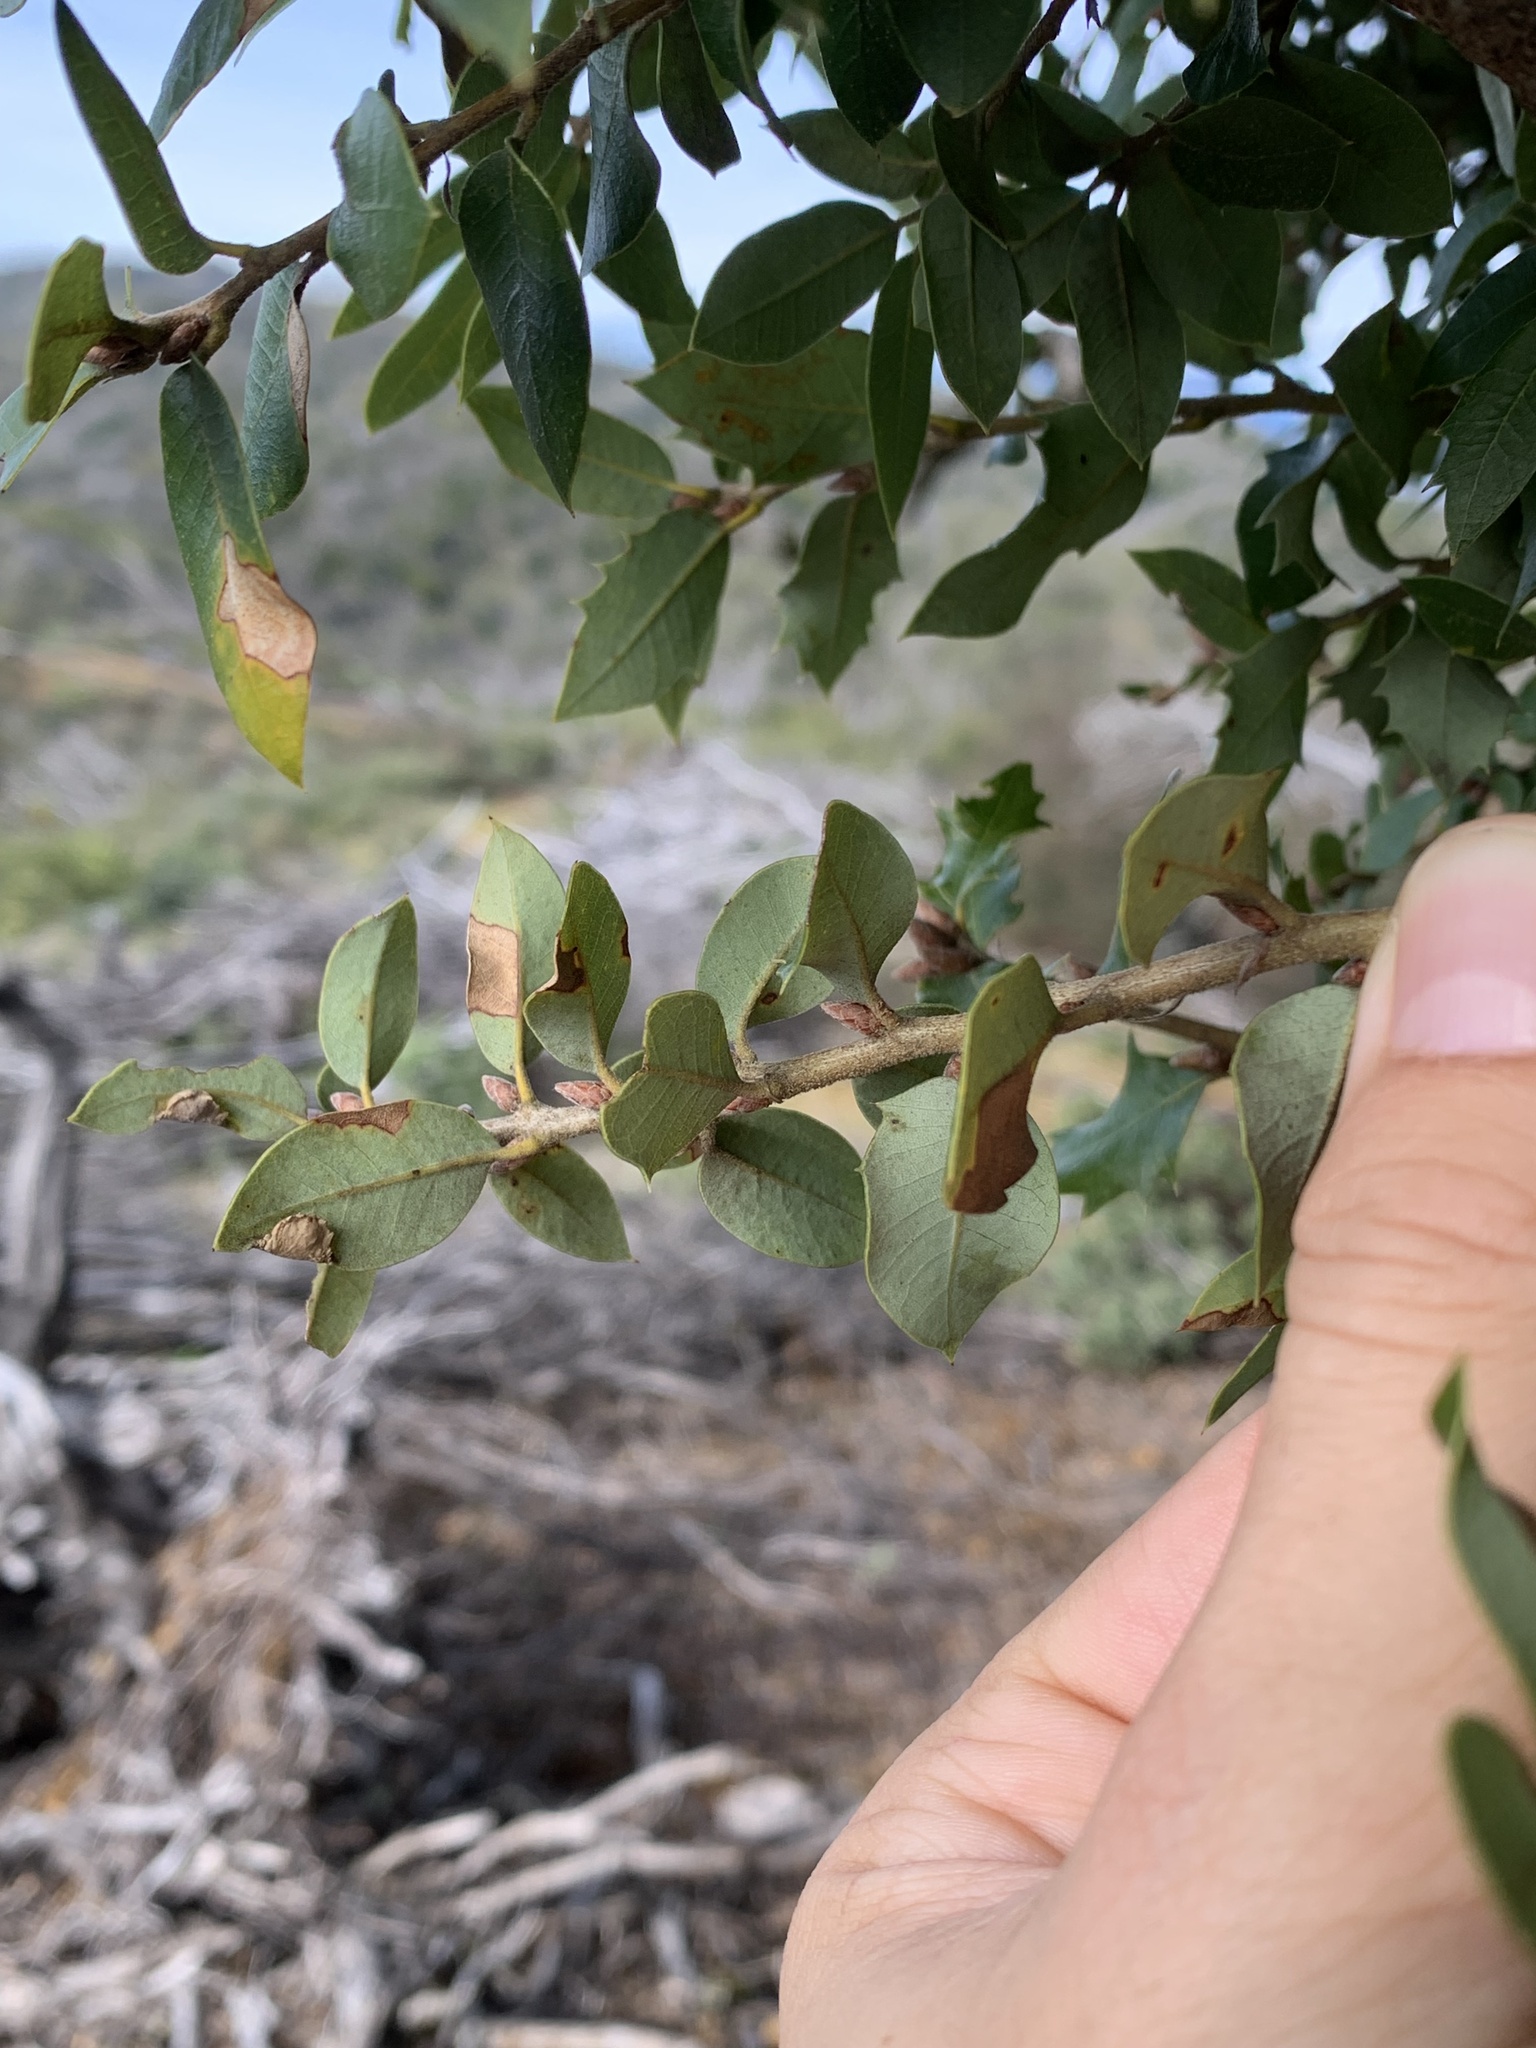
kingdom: Plantae
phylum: Tracheophyta
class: Magnoliopsida
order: Fagales
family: Fagaceae
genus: Quercus
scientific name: Quercus chrysolepis
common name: Canyon live oak
